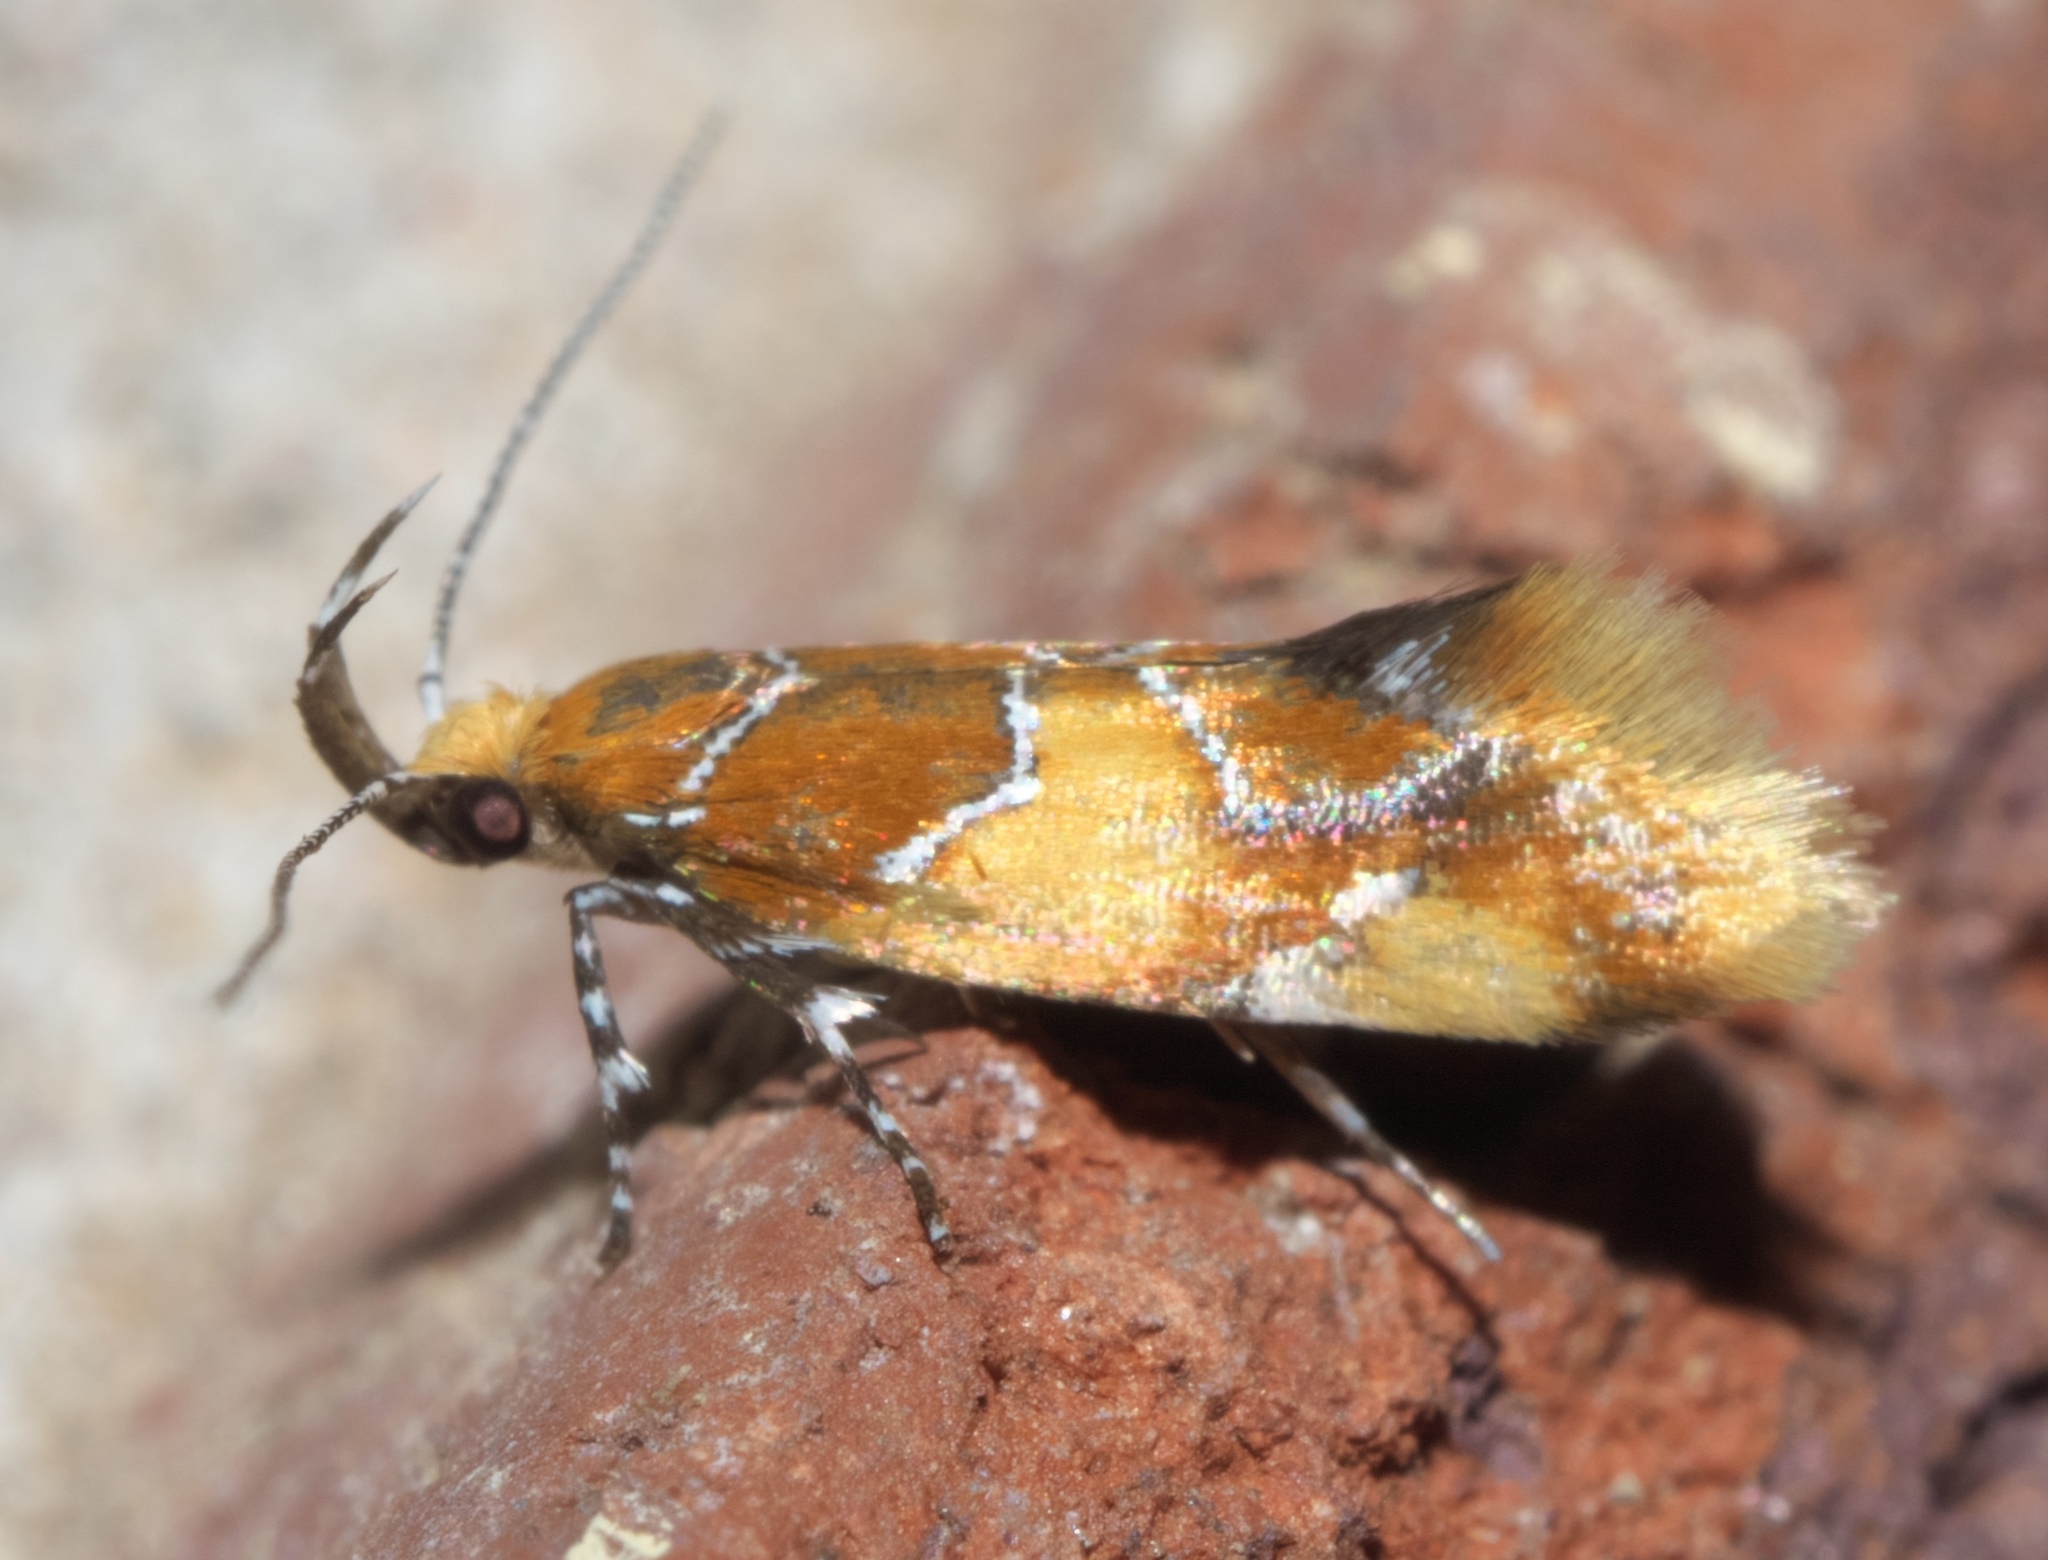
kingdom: Animalia
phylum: Arthropoda
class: Insecta
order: Lepidoptera
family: Oecophoridae
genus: Callima
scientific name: Callima argenticinctella
